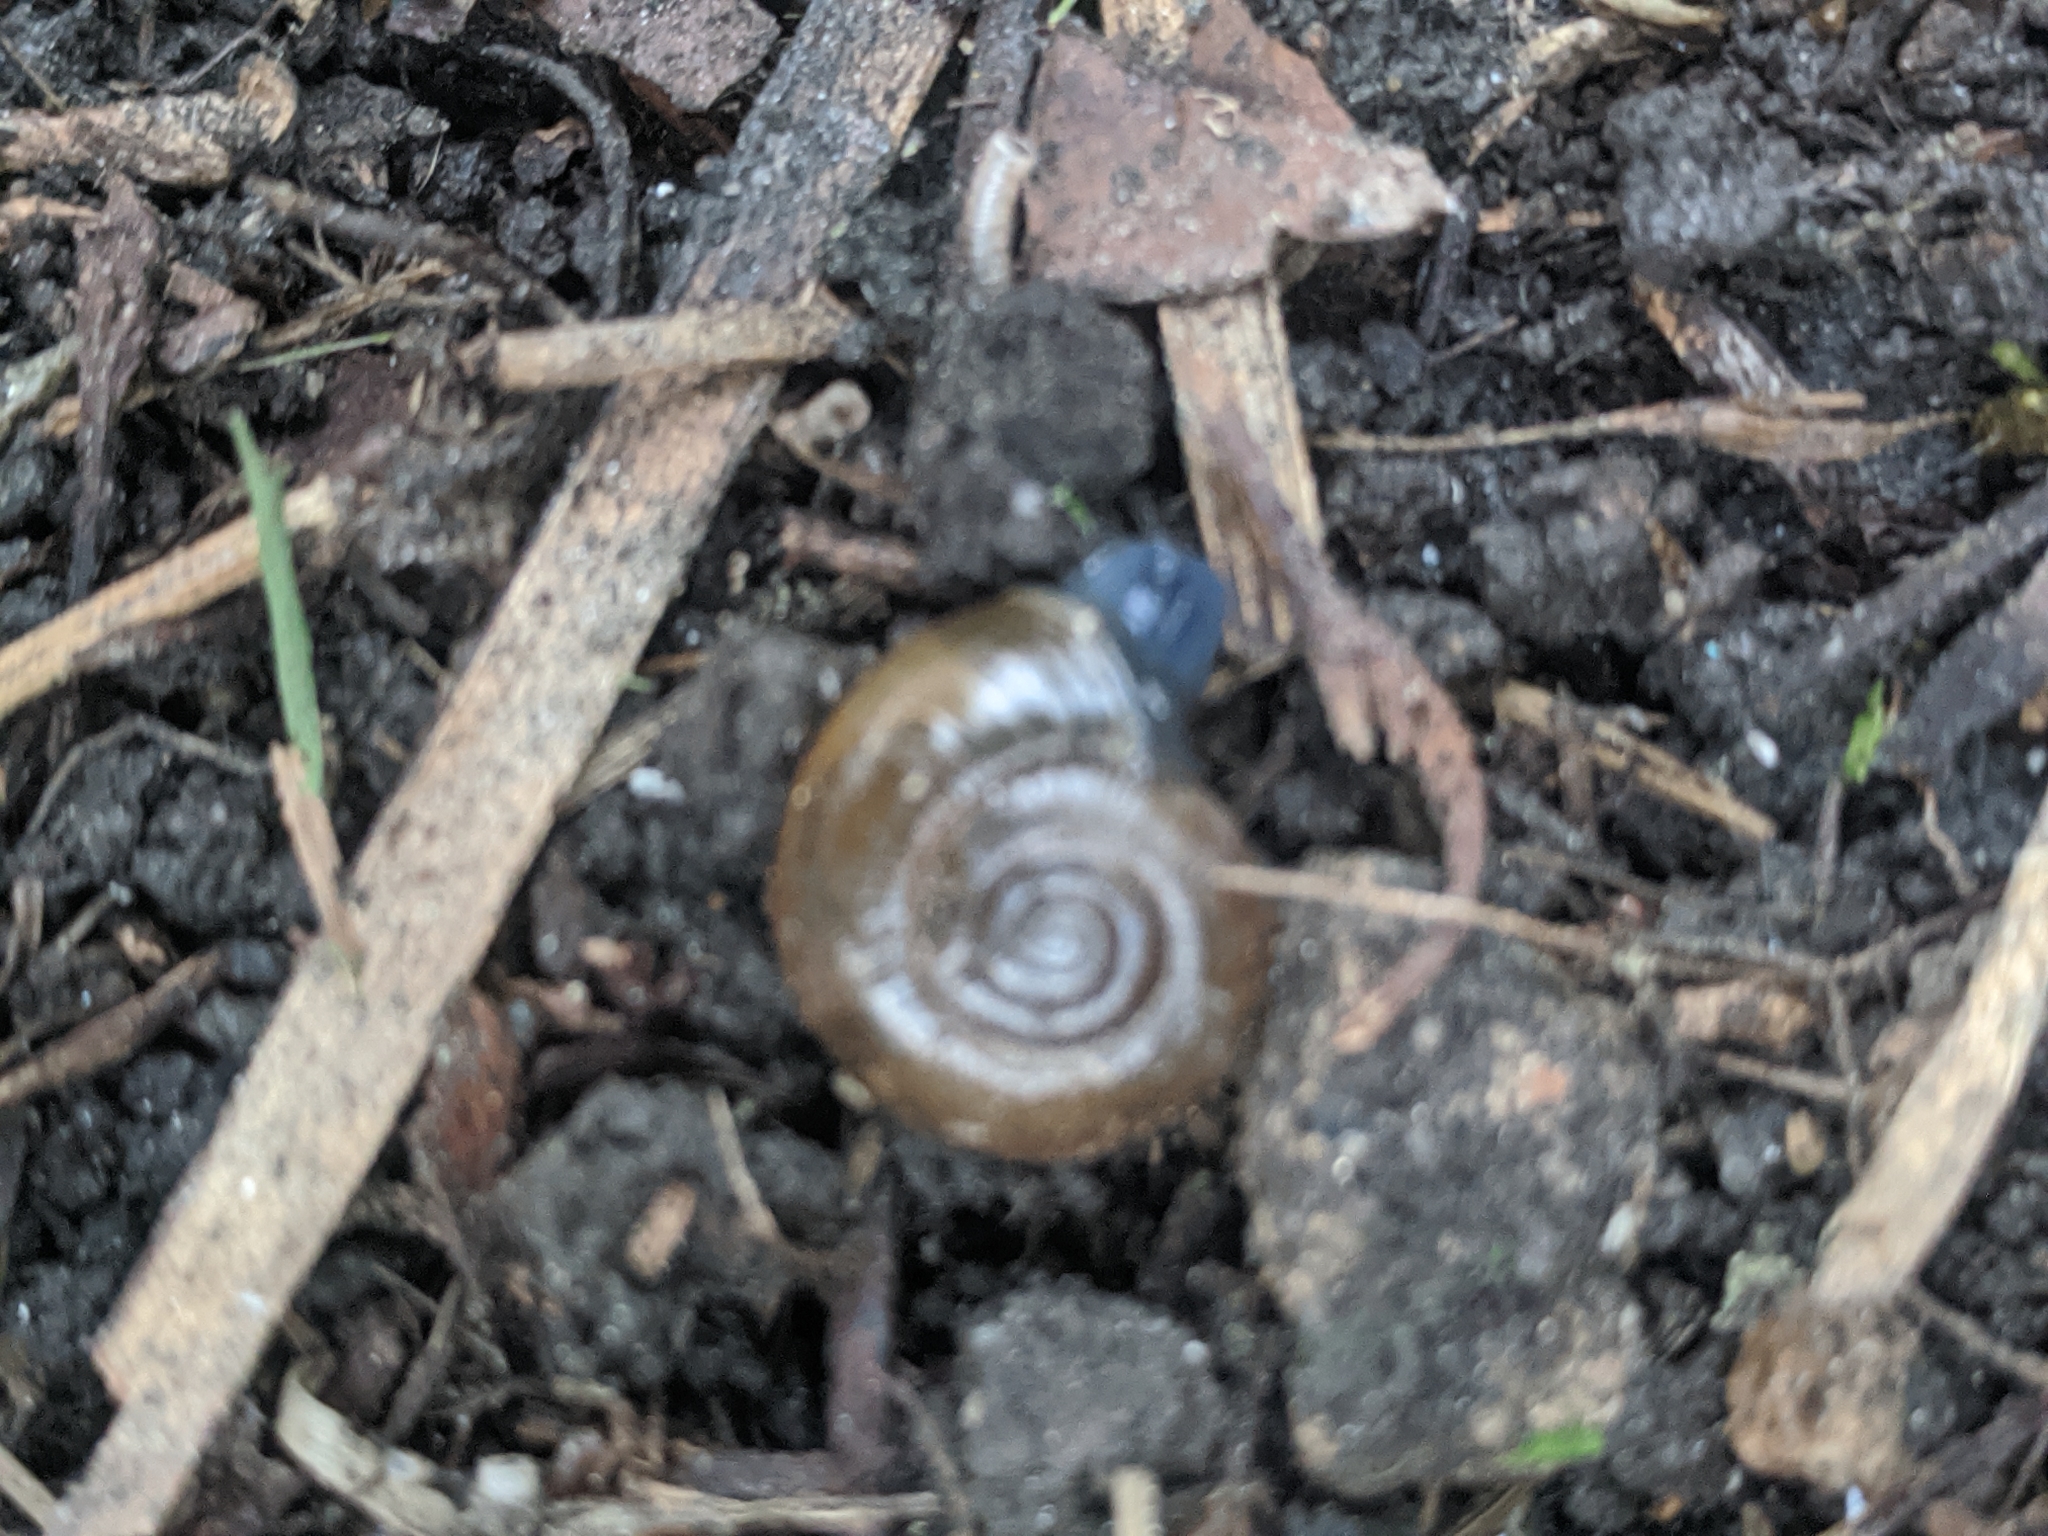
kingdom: Animalia
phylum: Mollusca
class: Gastropoda
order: Stylommatophora
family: Oxychilidae
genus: Oxychilus
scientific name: Oxychilus
